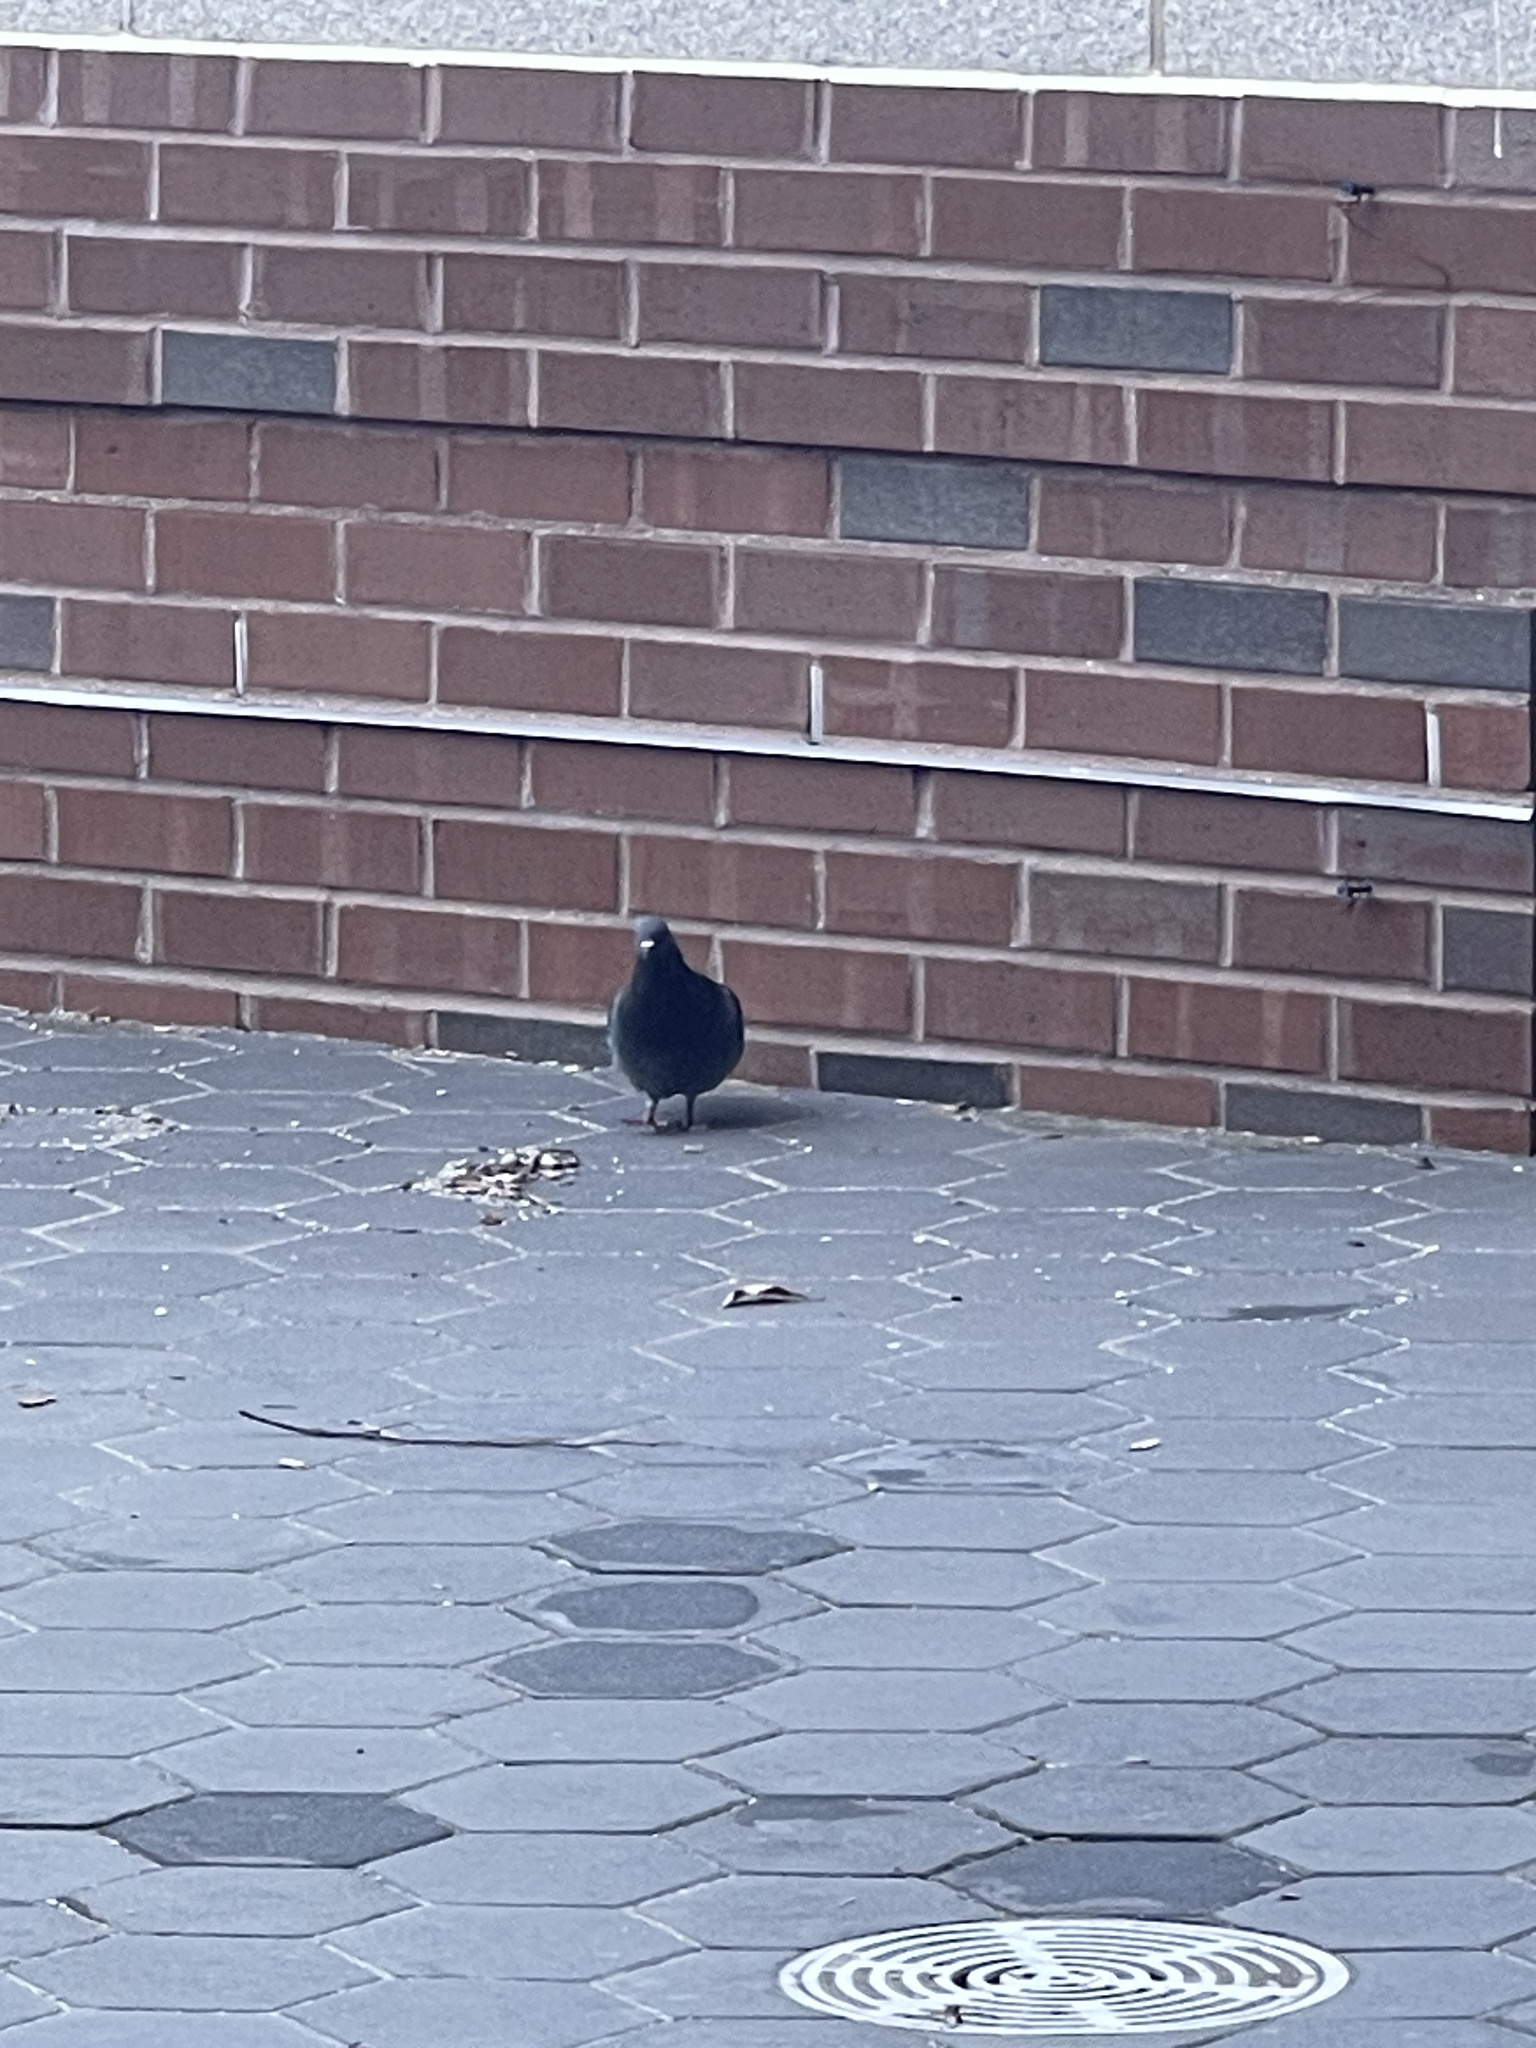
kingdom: Animalia
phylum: Chordata
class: Aves
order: Columbiformes
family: Columbidae
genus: Columba
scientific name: Columba livia
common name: Rock pigeon
